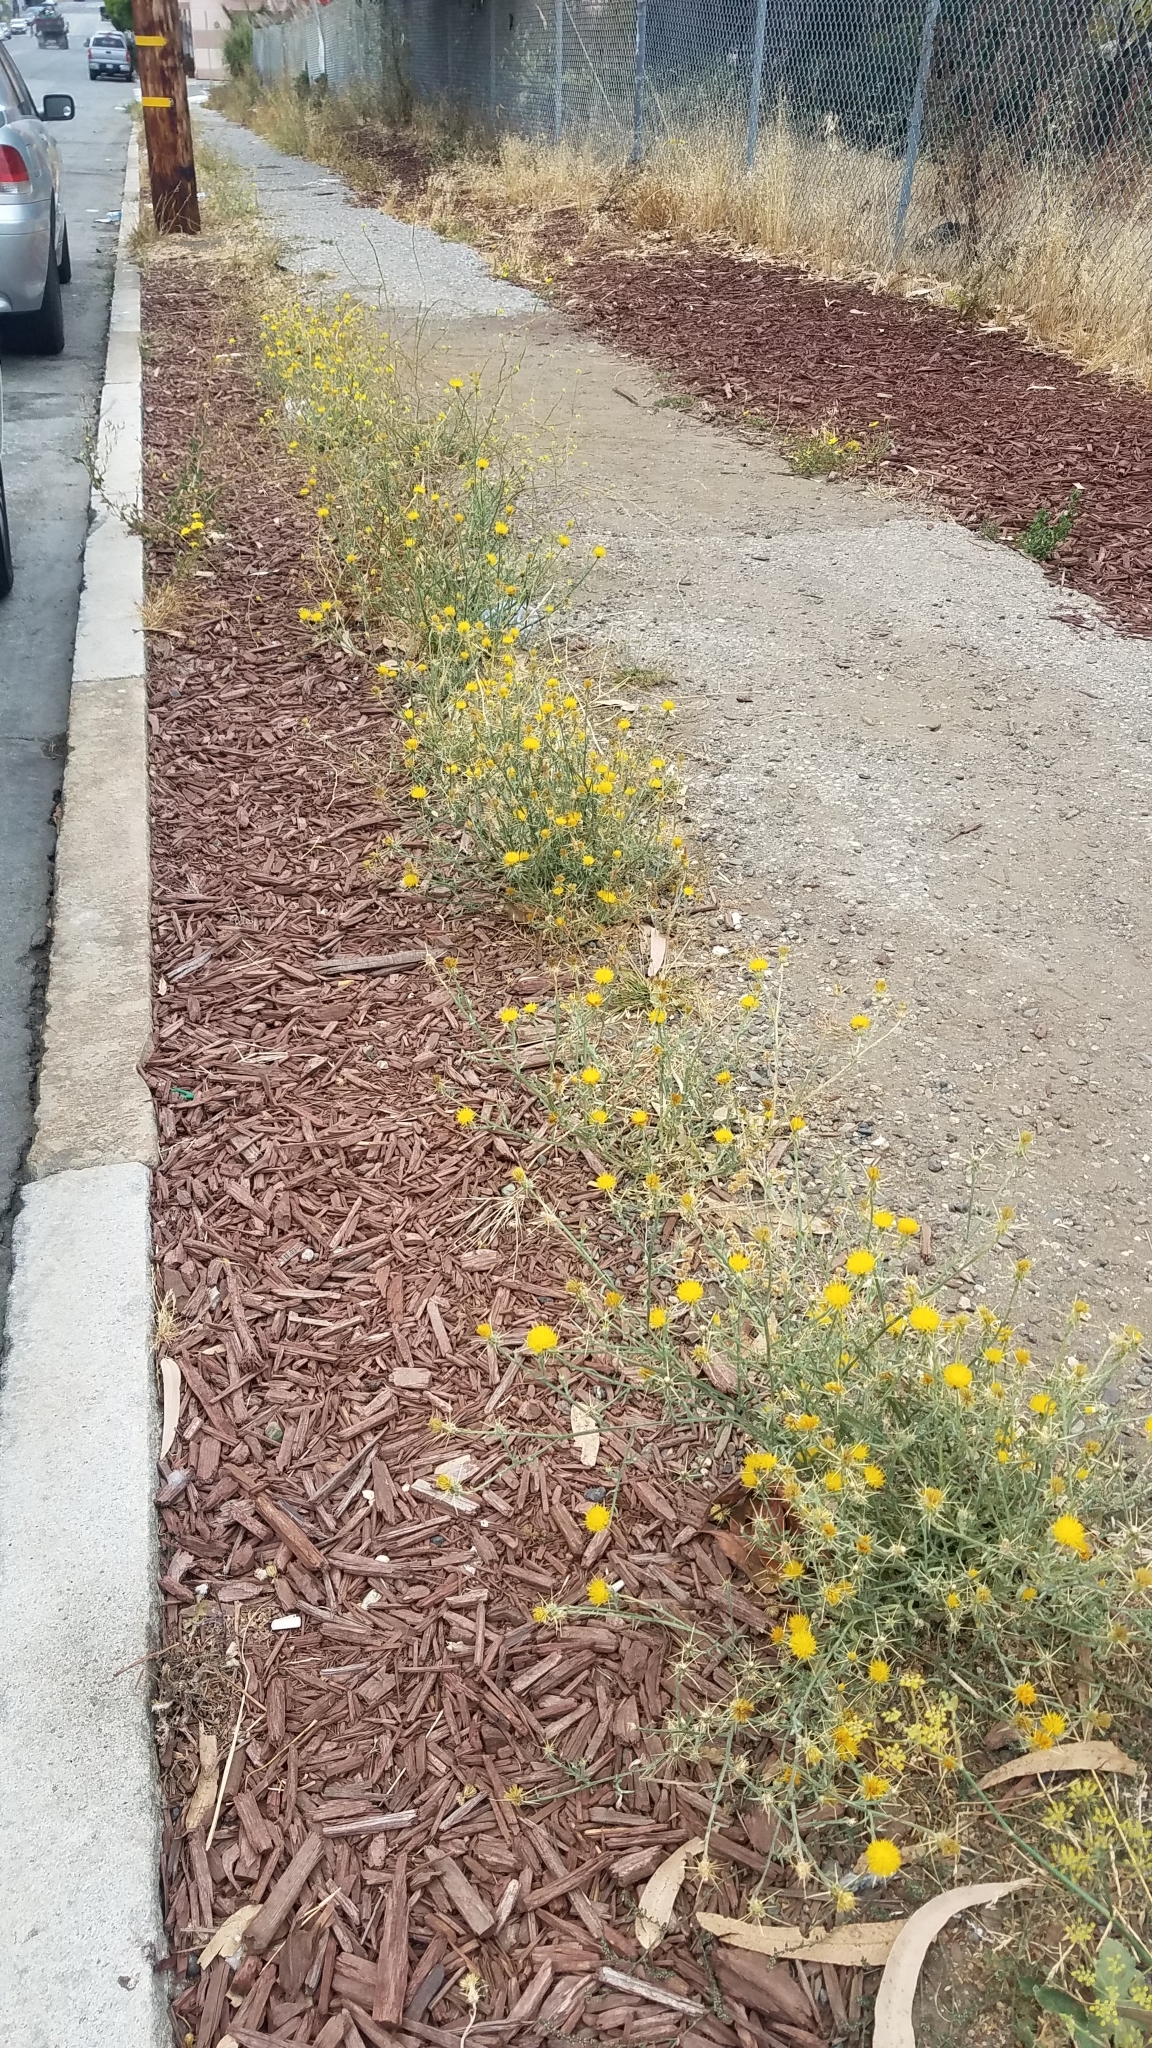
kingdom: Plantae
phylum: Tracheophyta
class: Magnoliopsida
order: Asterales
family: Asteraceae
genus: Centaurea
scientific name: Centaurea solstitialis
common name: Yellow star-thistle
